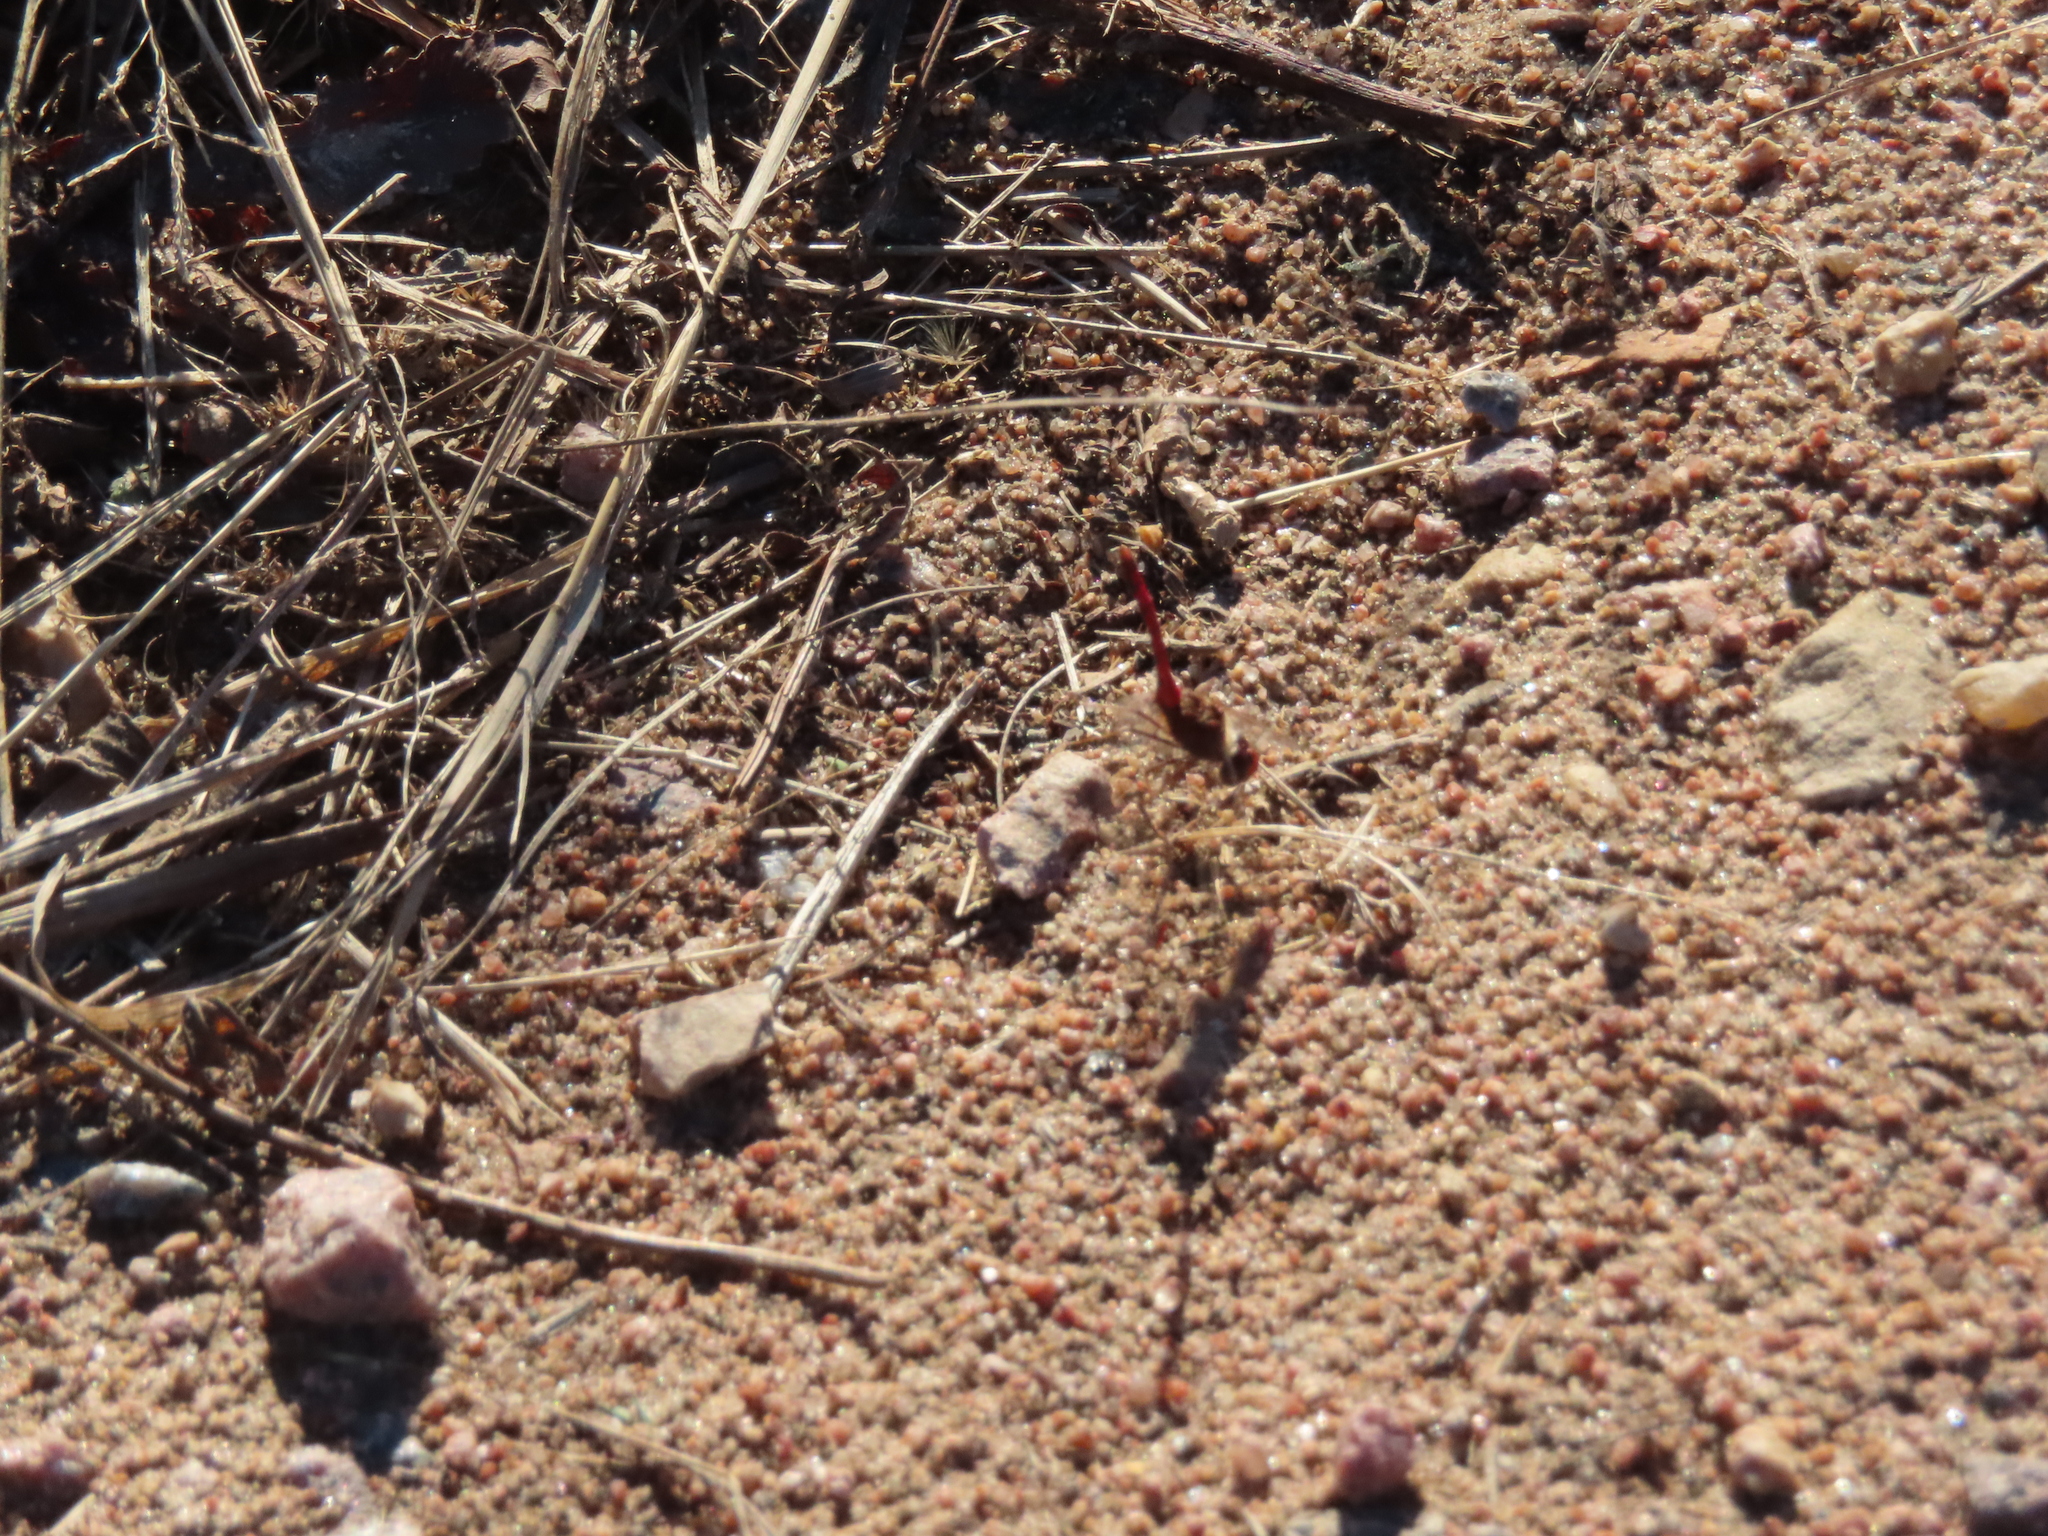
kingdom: Animalia
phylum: Arthropoda
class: Insecta
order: Odonata
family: Libellulidae
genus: Sympetrum
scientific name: Sympetrum vicinum
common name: Autumn meadowhawk
